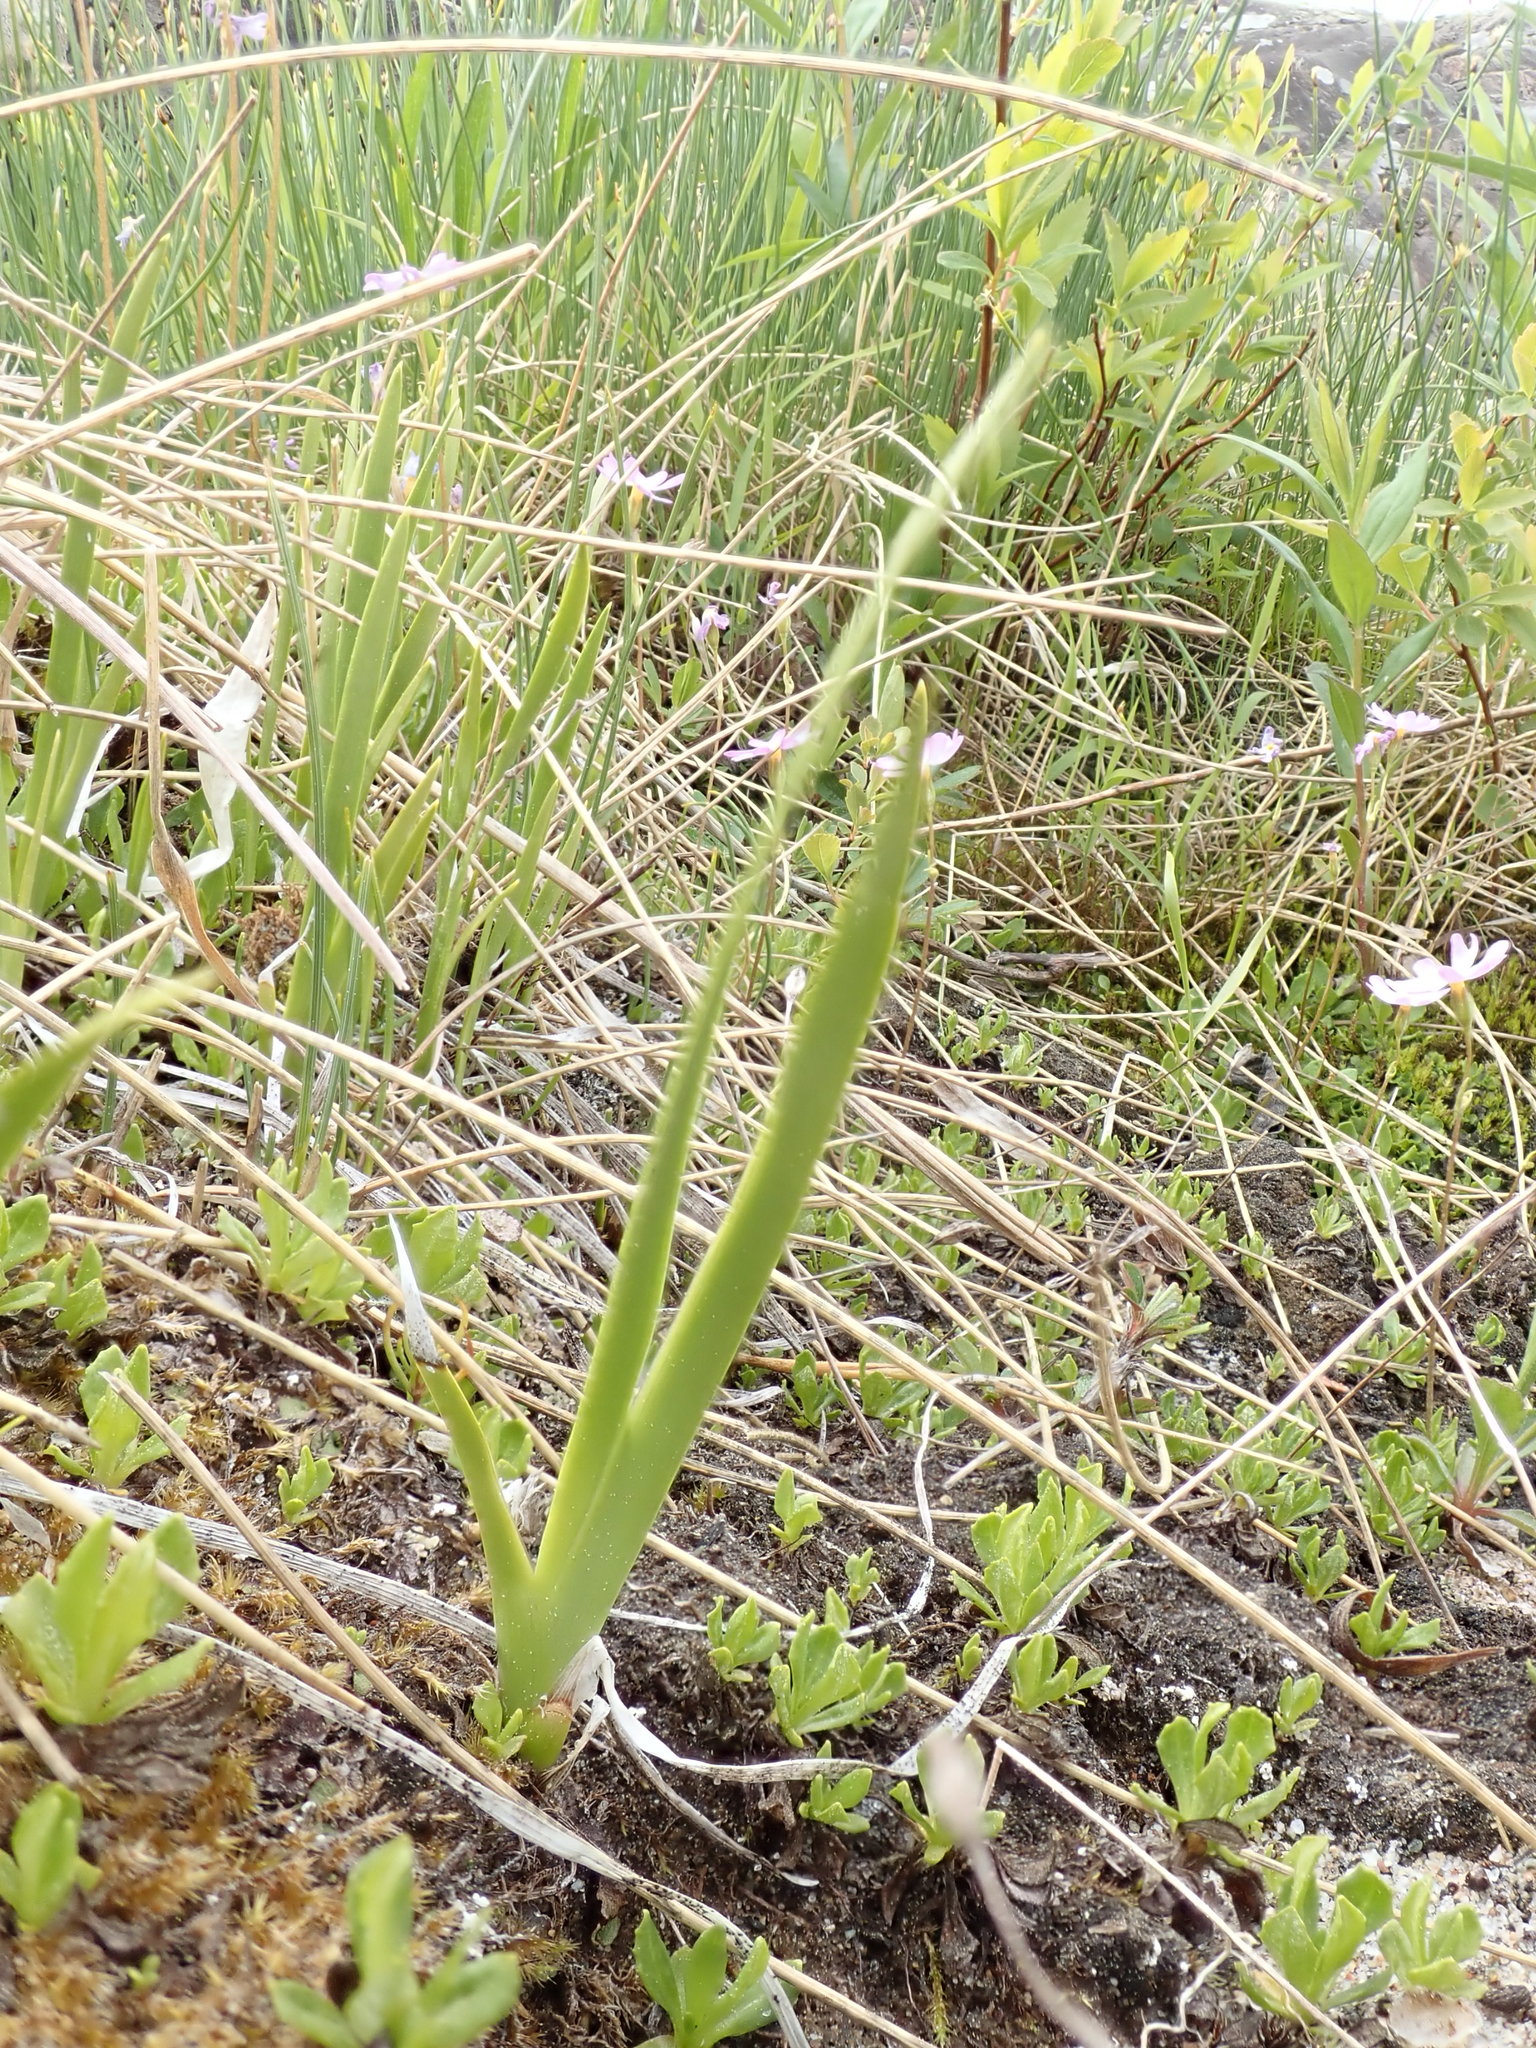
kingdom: Plantae
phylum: Tracheophyta
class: Liliopsida
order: Alismatales
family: Tofieldiaceae
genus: Triantha
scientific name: Triantha glutinosa
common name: Glutinous tofieldia
